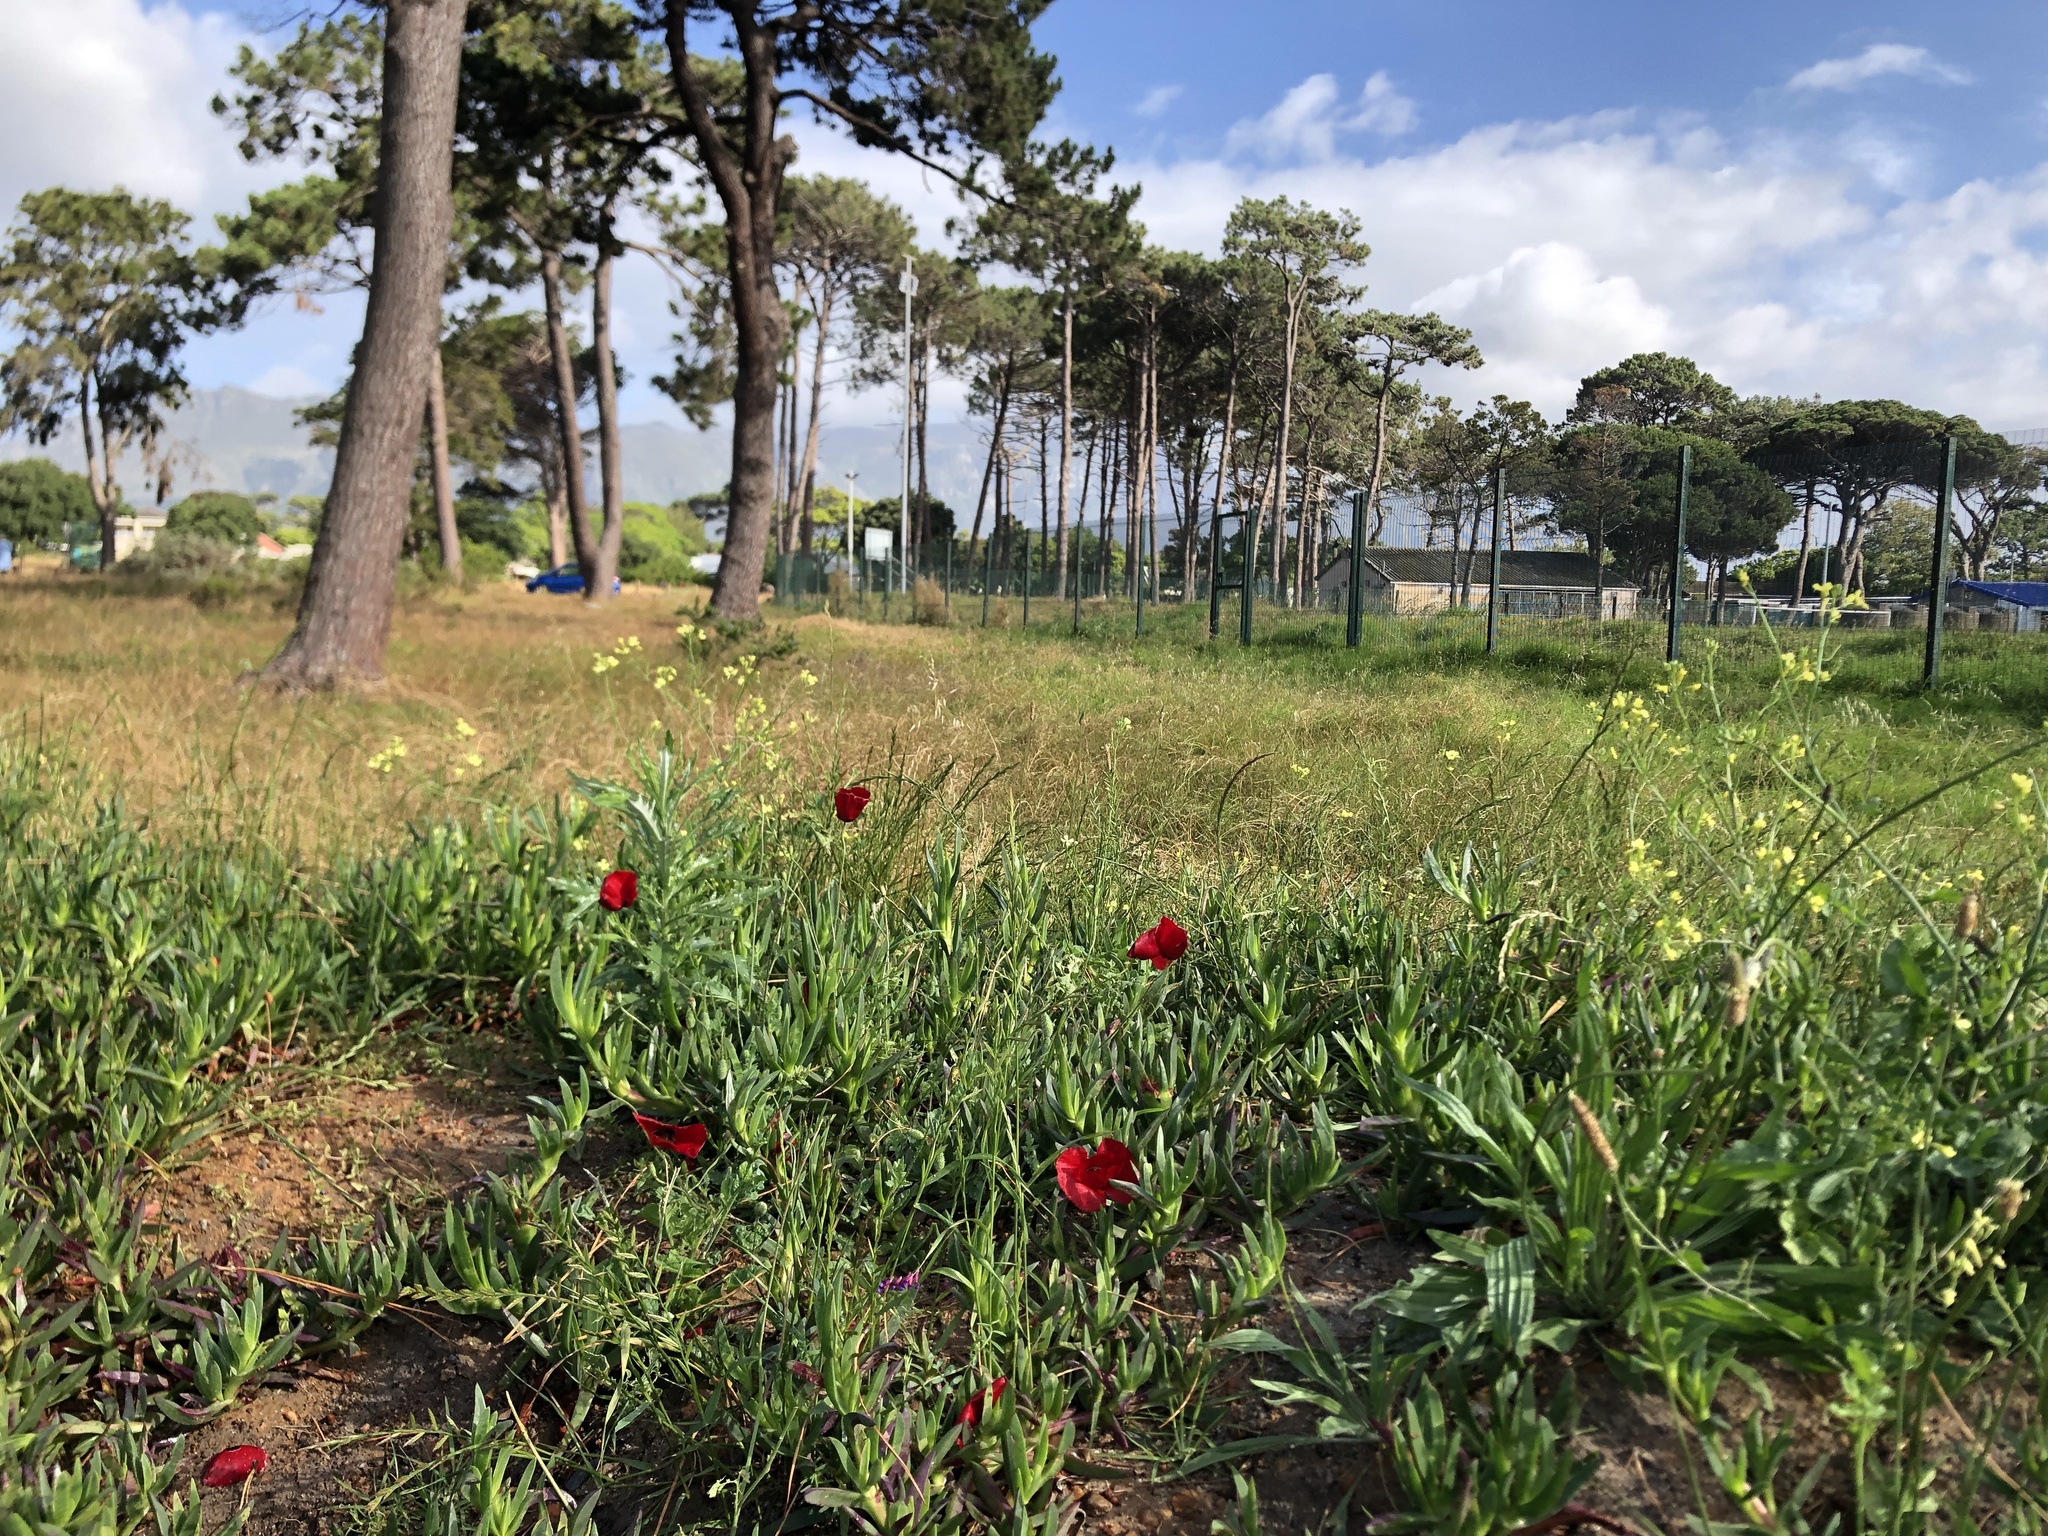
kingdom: Plantae
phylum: Tracheophyta
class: Magnoliopsida
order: Ranunculales
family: Papaveraceae
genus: Papaver
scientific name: Papaver rhoeas
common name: Corn poppy
